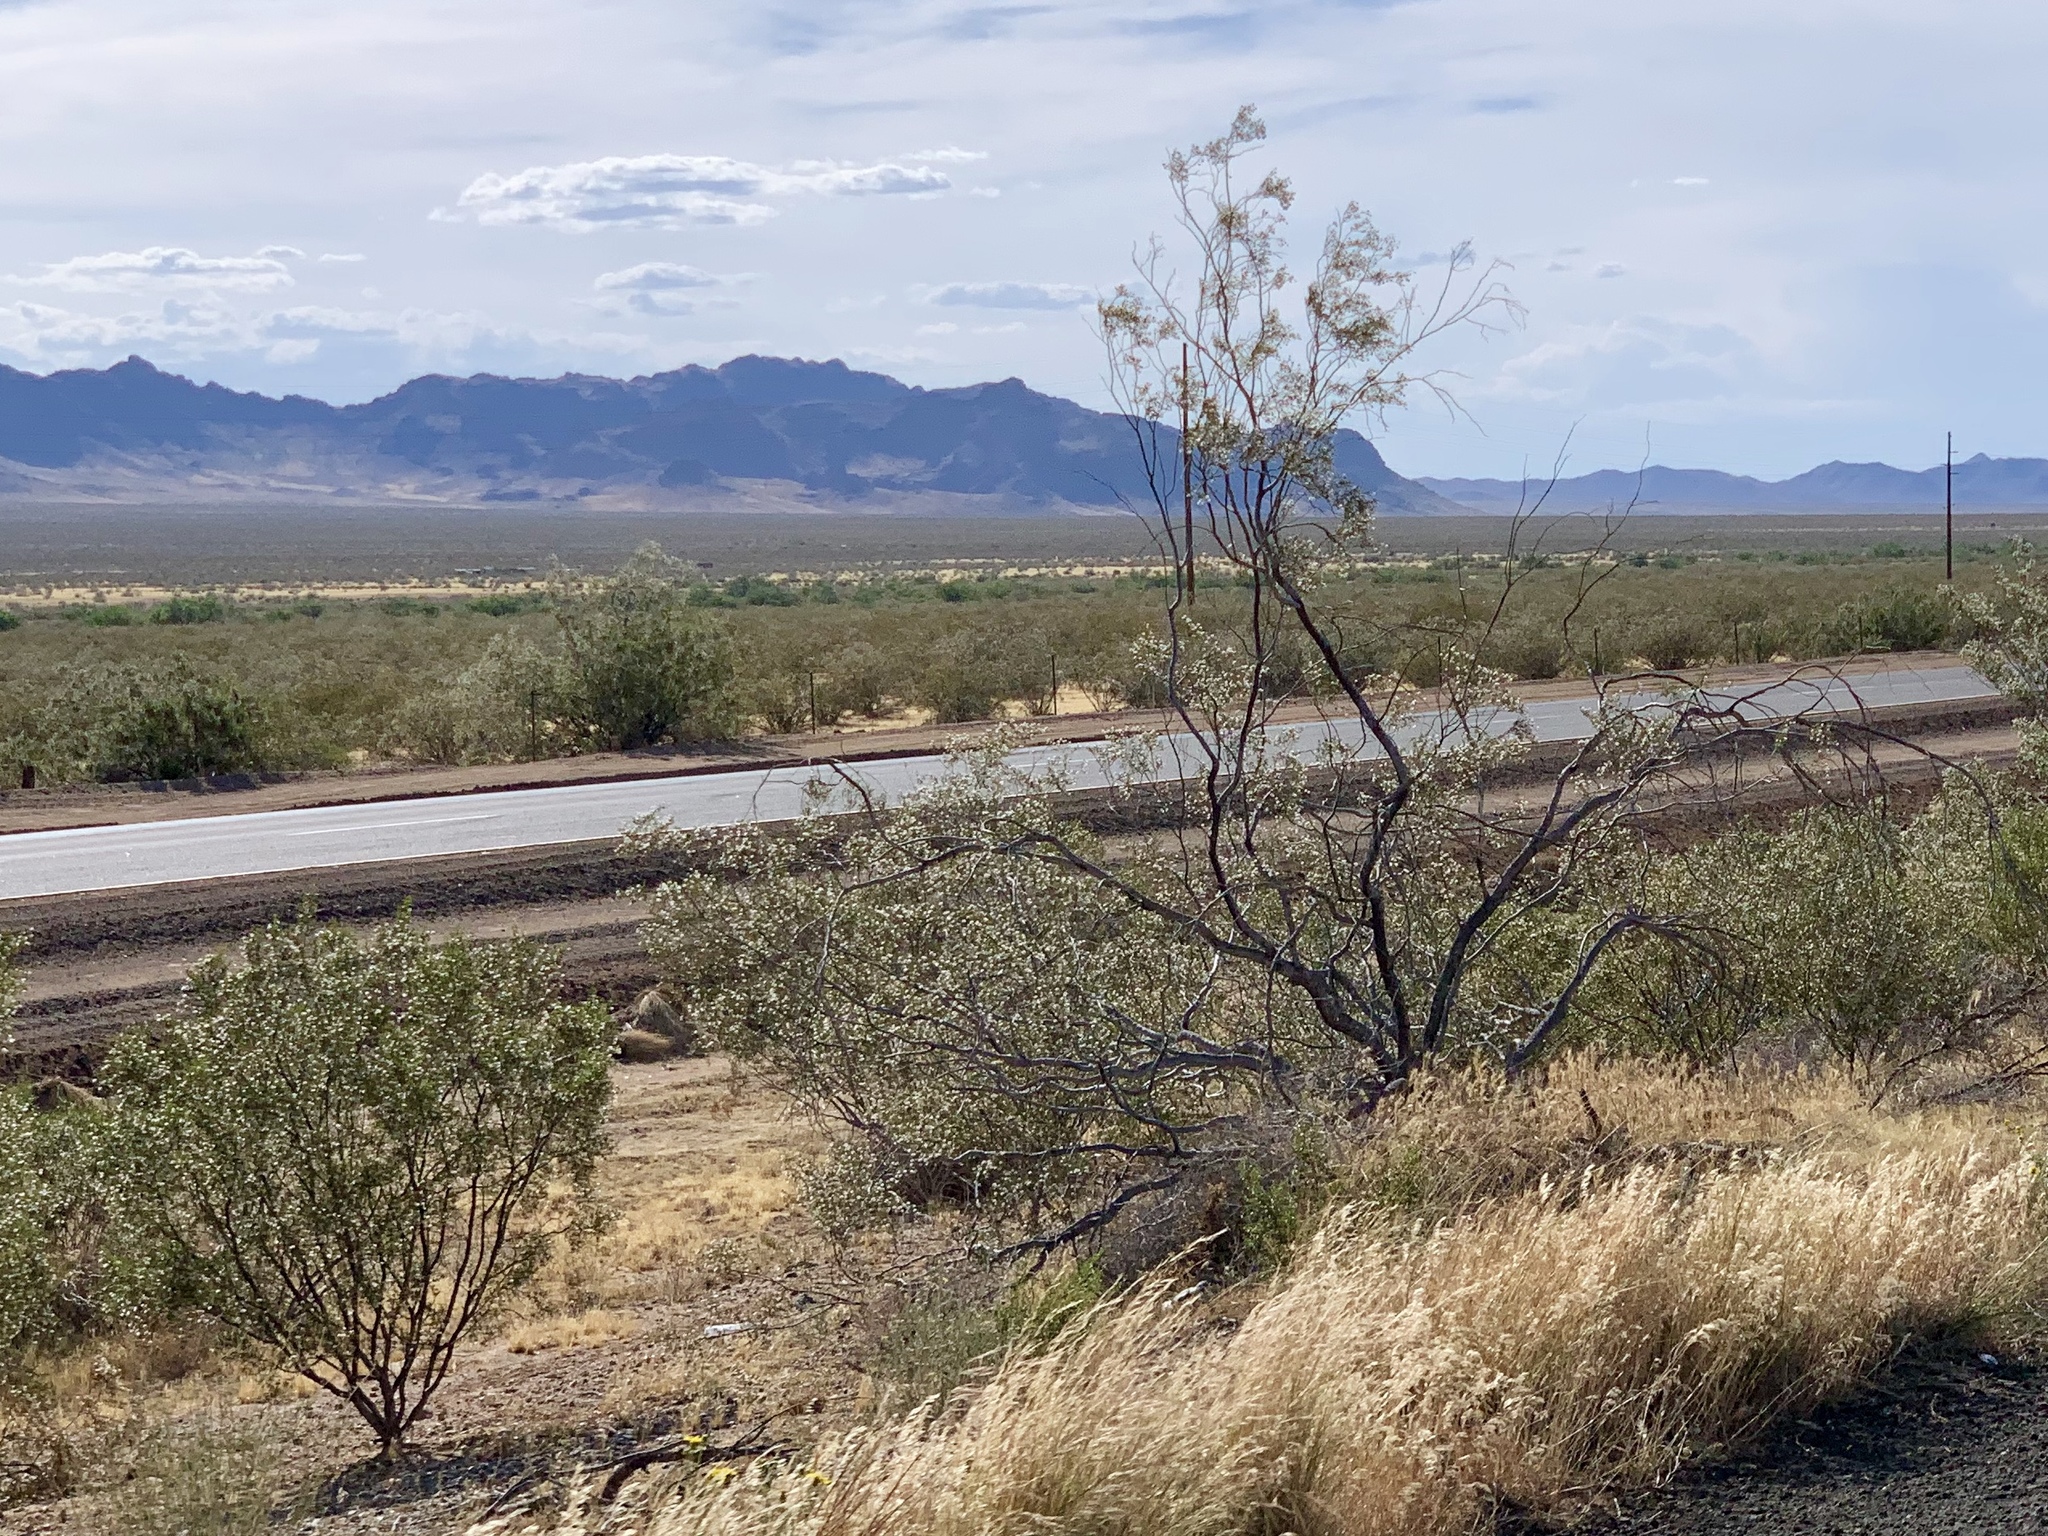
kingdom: Plantae
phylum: Tracheophyta
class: Magnoliopsida
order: Zygophyllales
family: Zygophyllaceae
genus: Larrea
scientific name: Larrea tridentata
